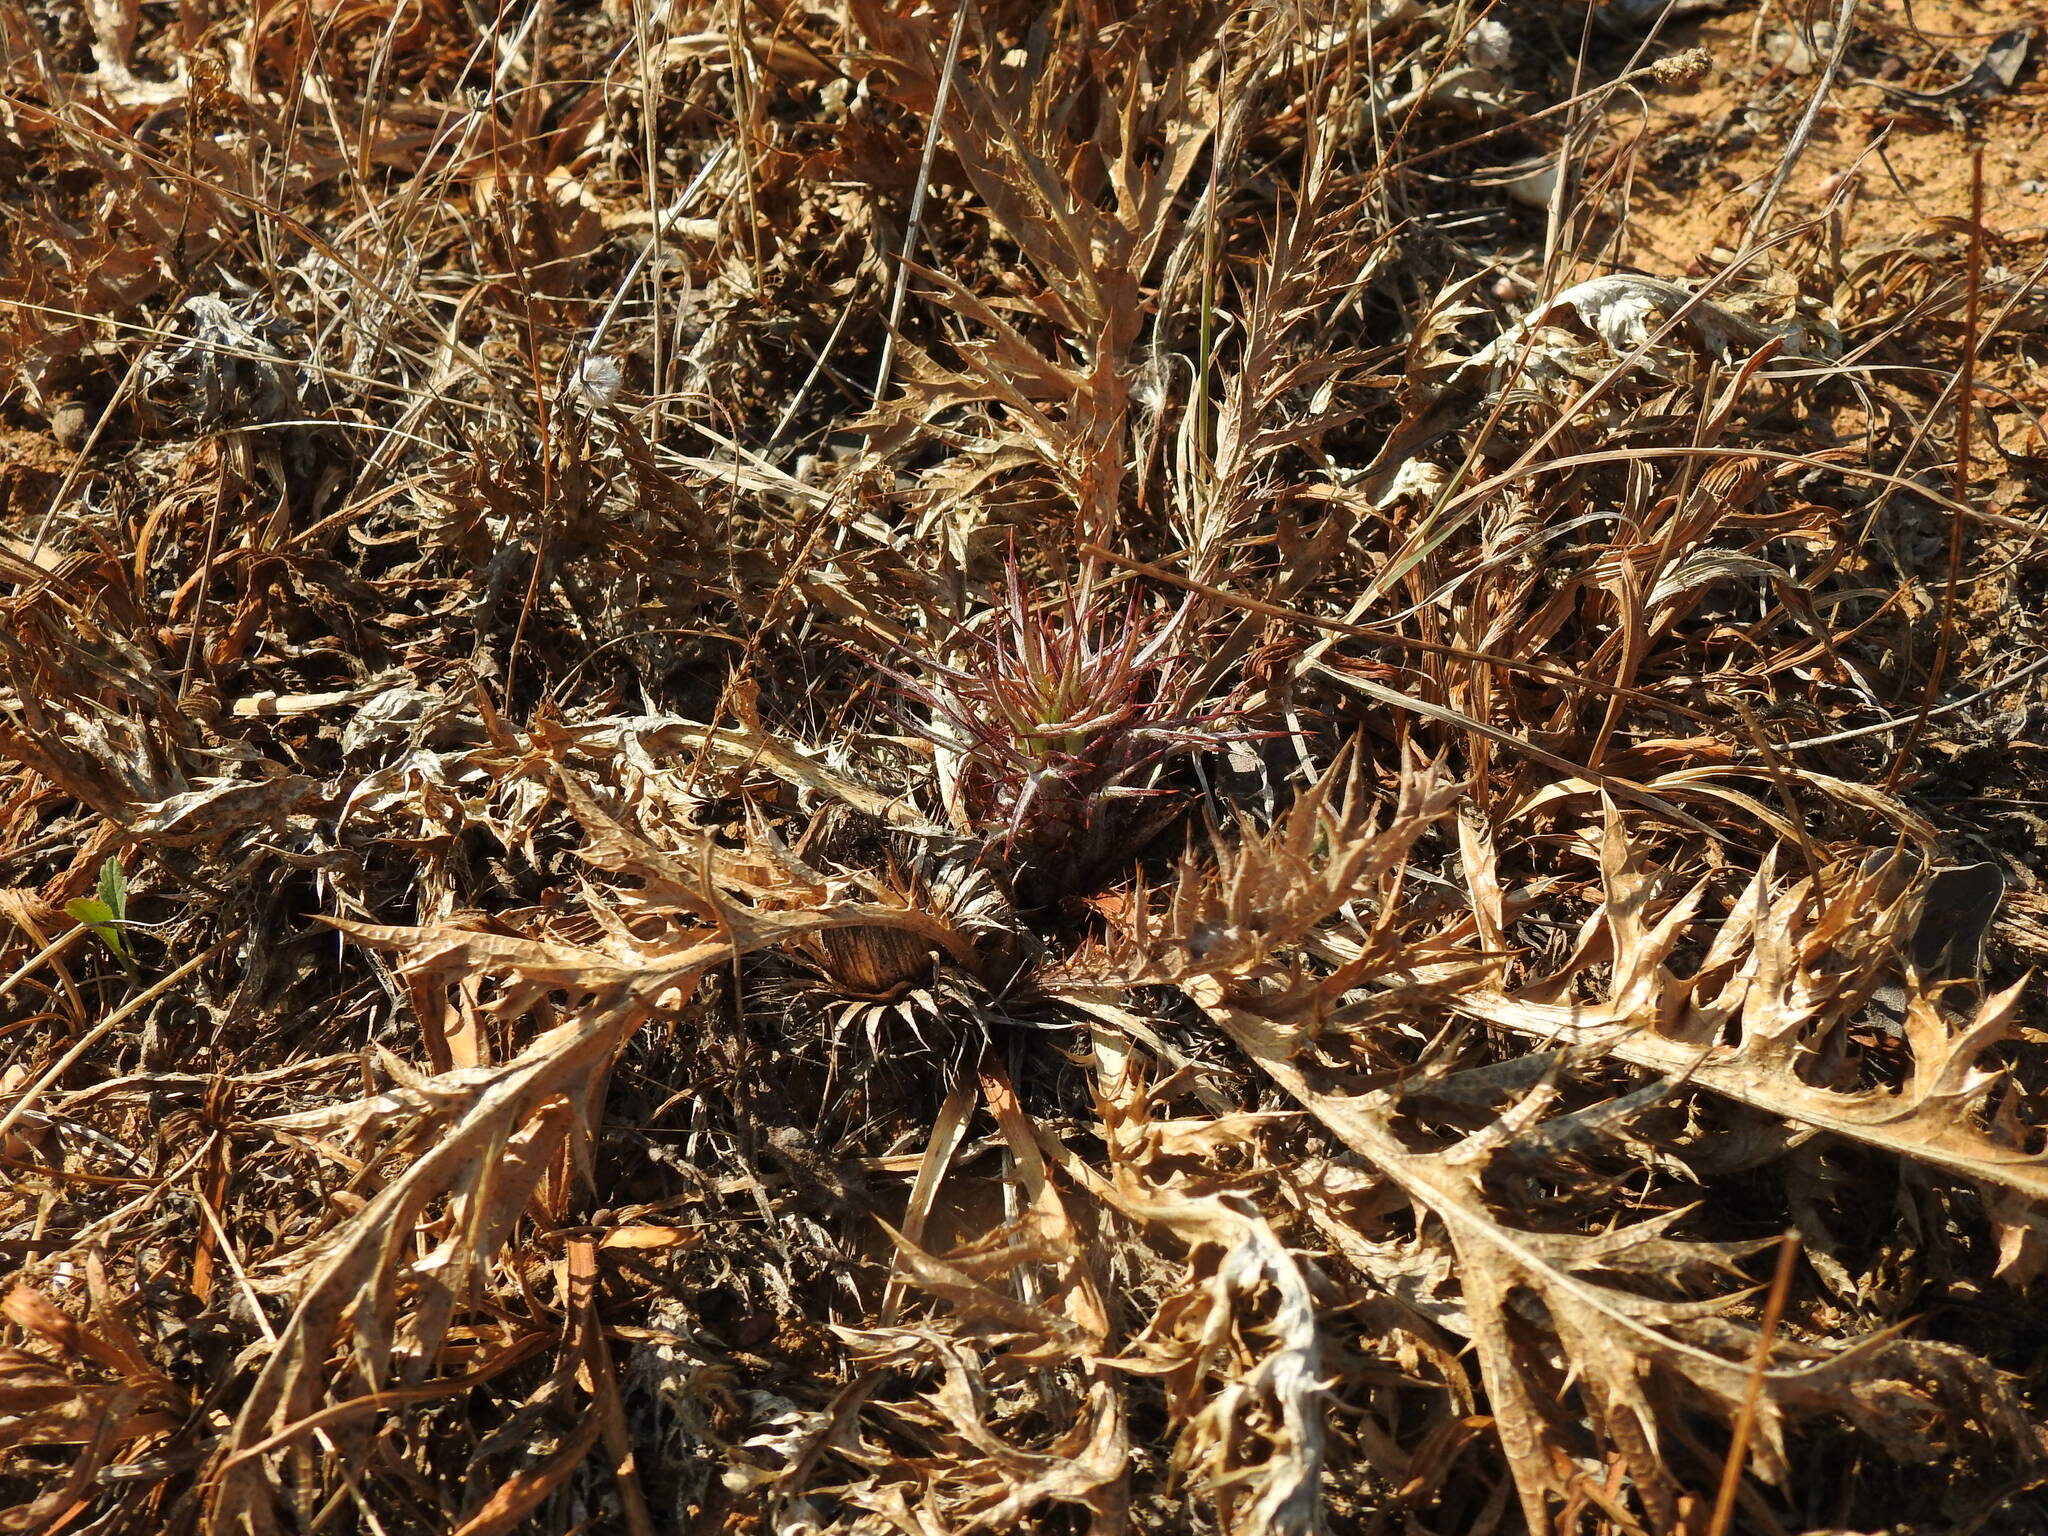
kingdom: Plantae
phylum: Tracheophyta
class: Magnoliopsida
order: Asterales
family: Asteraceae
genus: Chamaeleon
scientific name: Chamaeleon gummifer
